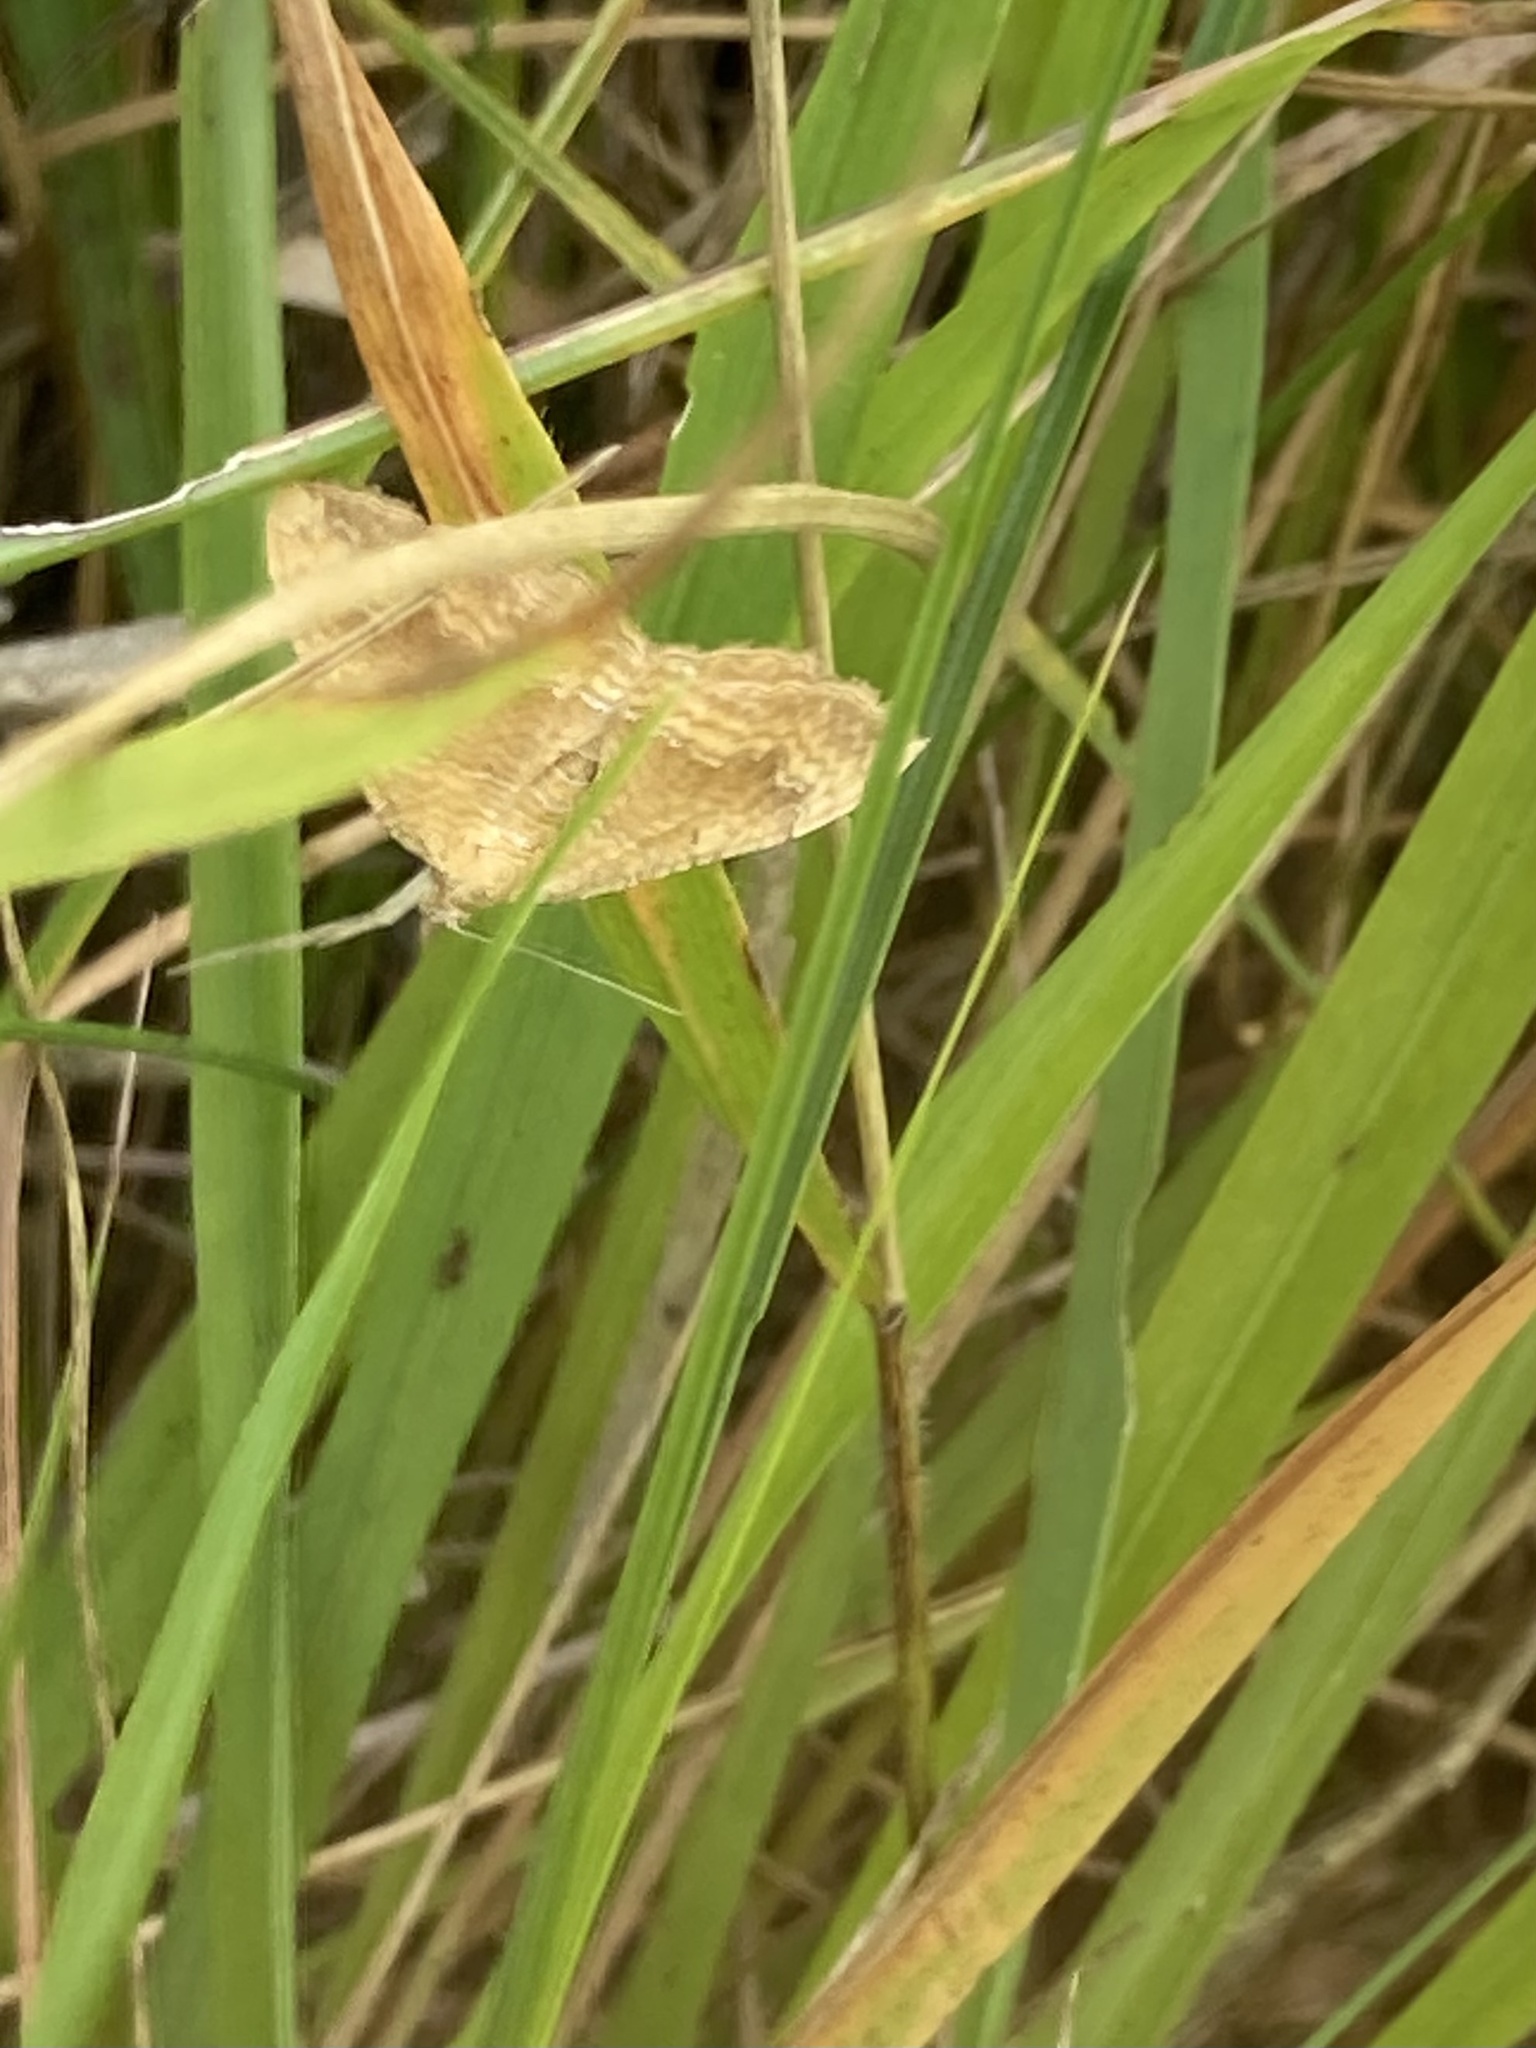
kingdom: Animalia
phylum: Arthropoda
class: Insecta
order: Lepidoptera
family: Geometridae
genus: Camptogramma
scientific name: Camptogramma bilineata
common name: Yellow shell
